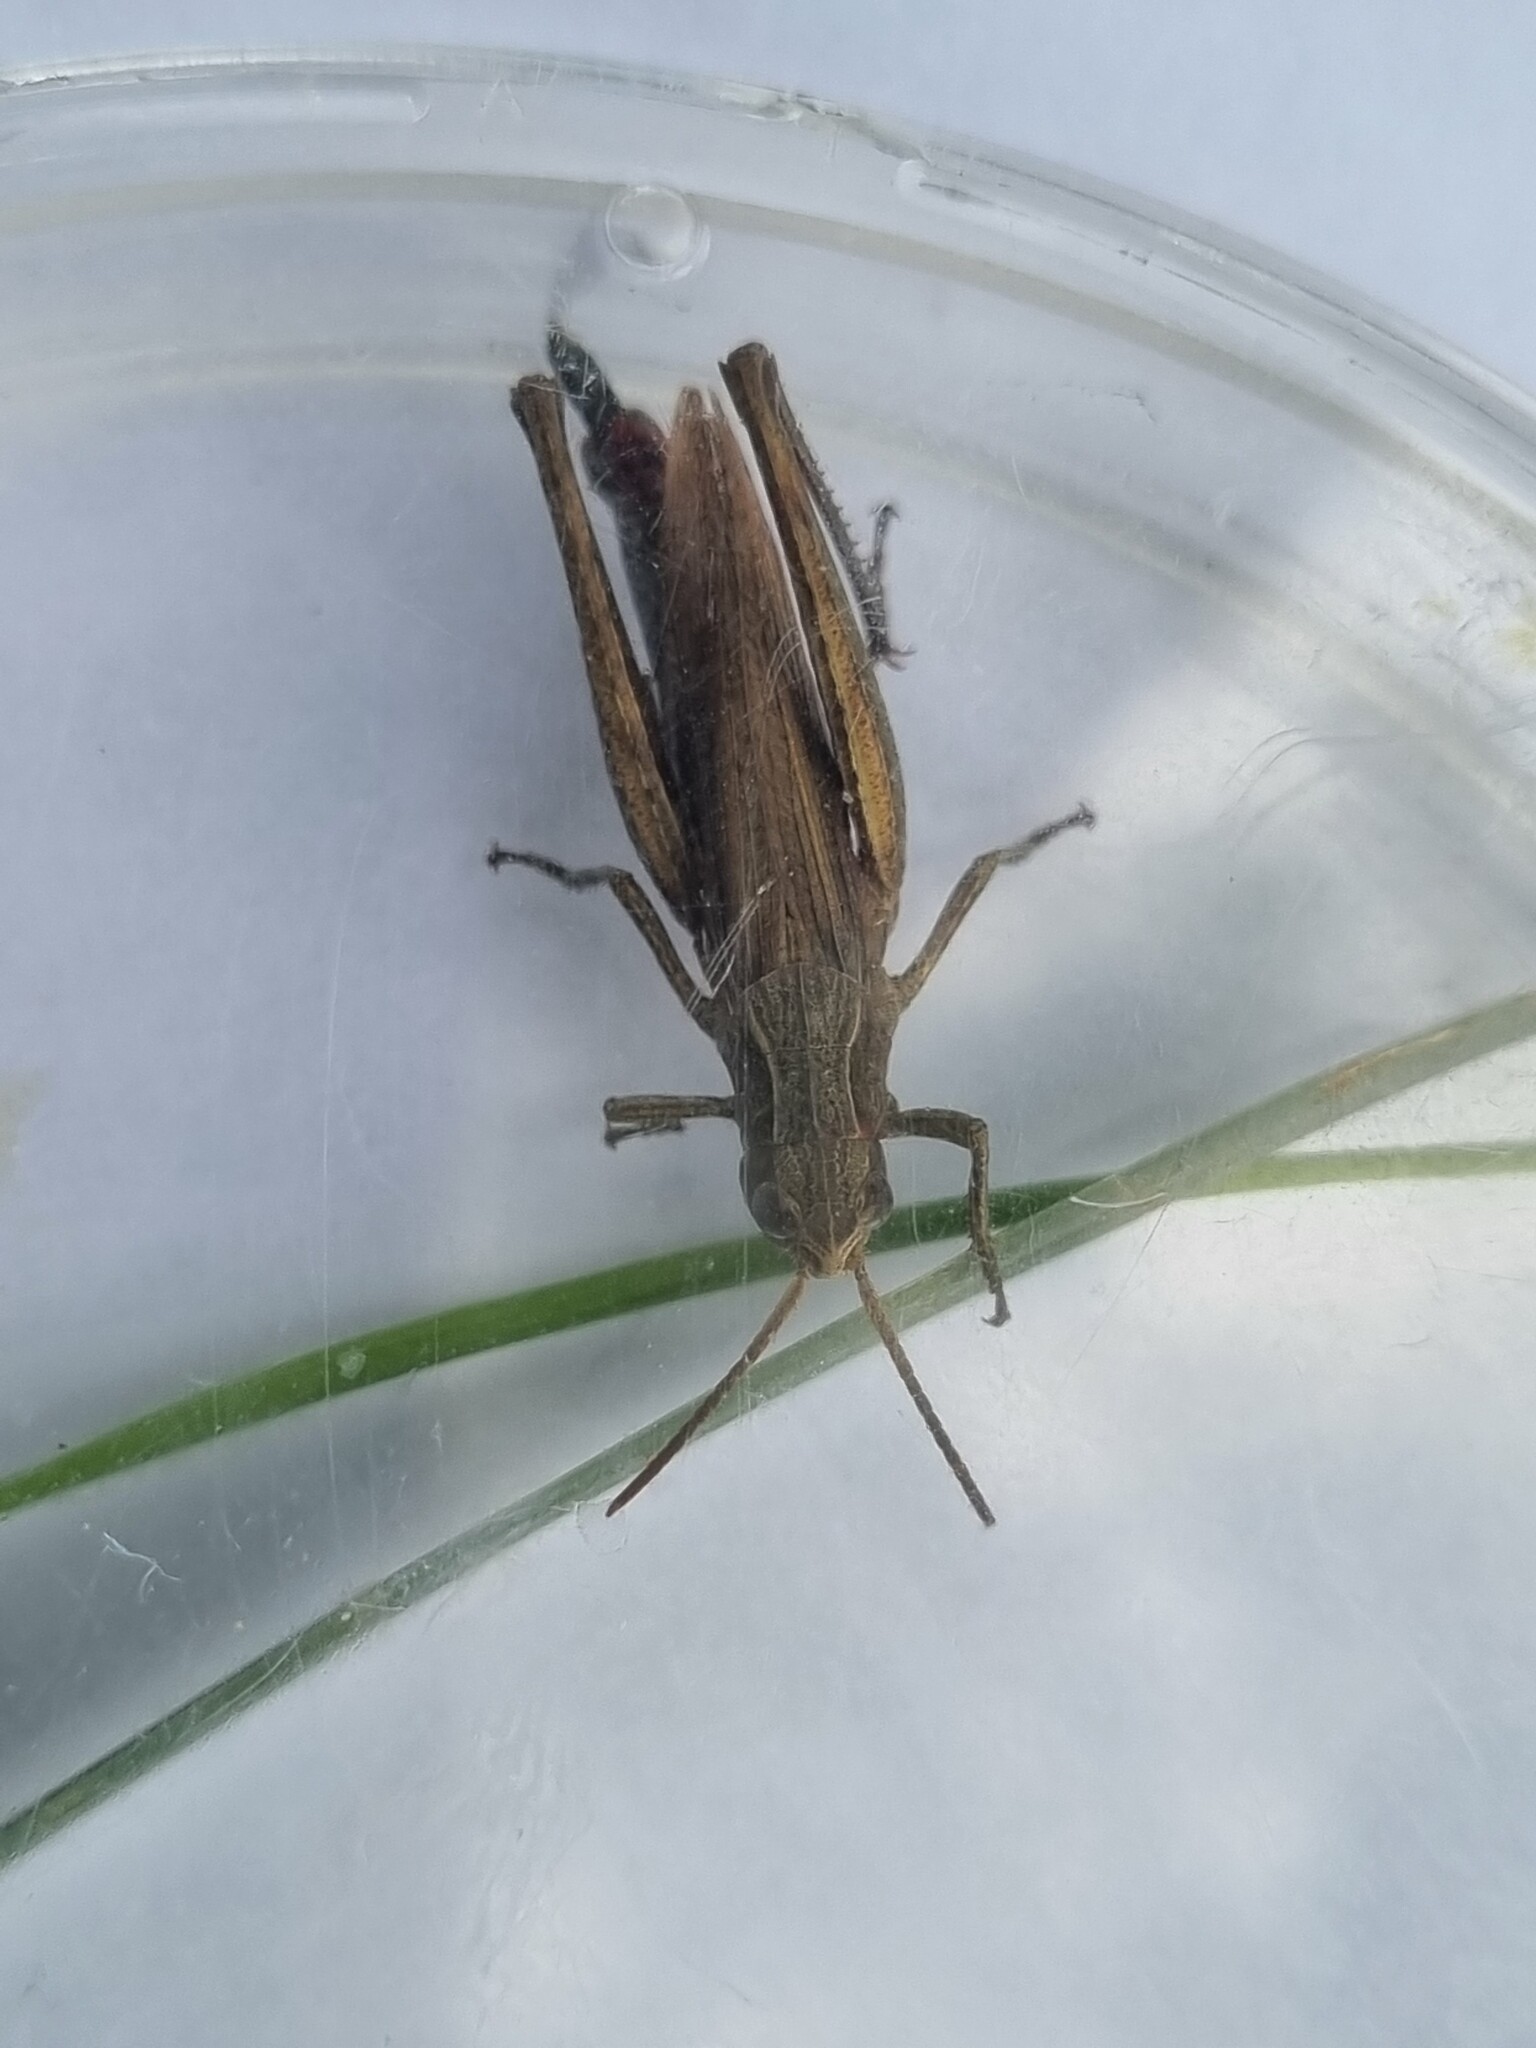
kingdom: Animalia
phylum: Arthropoda
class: Insecta
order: Orthoptera
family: Acrididae
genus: Chorthippus
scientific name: Chorthippus dorsatus
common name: Steppe grasshopper
